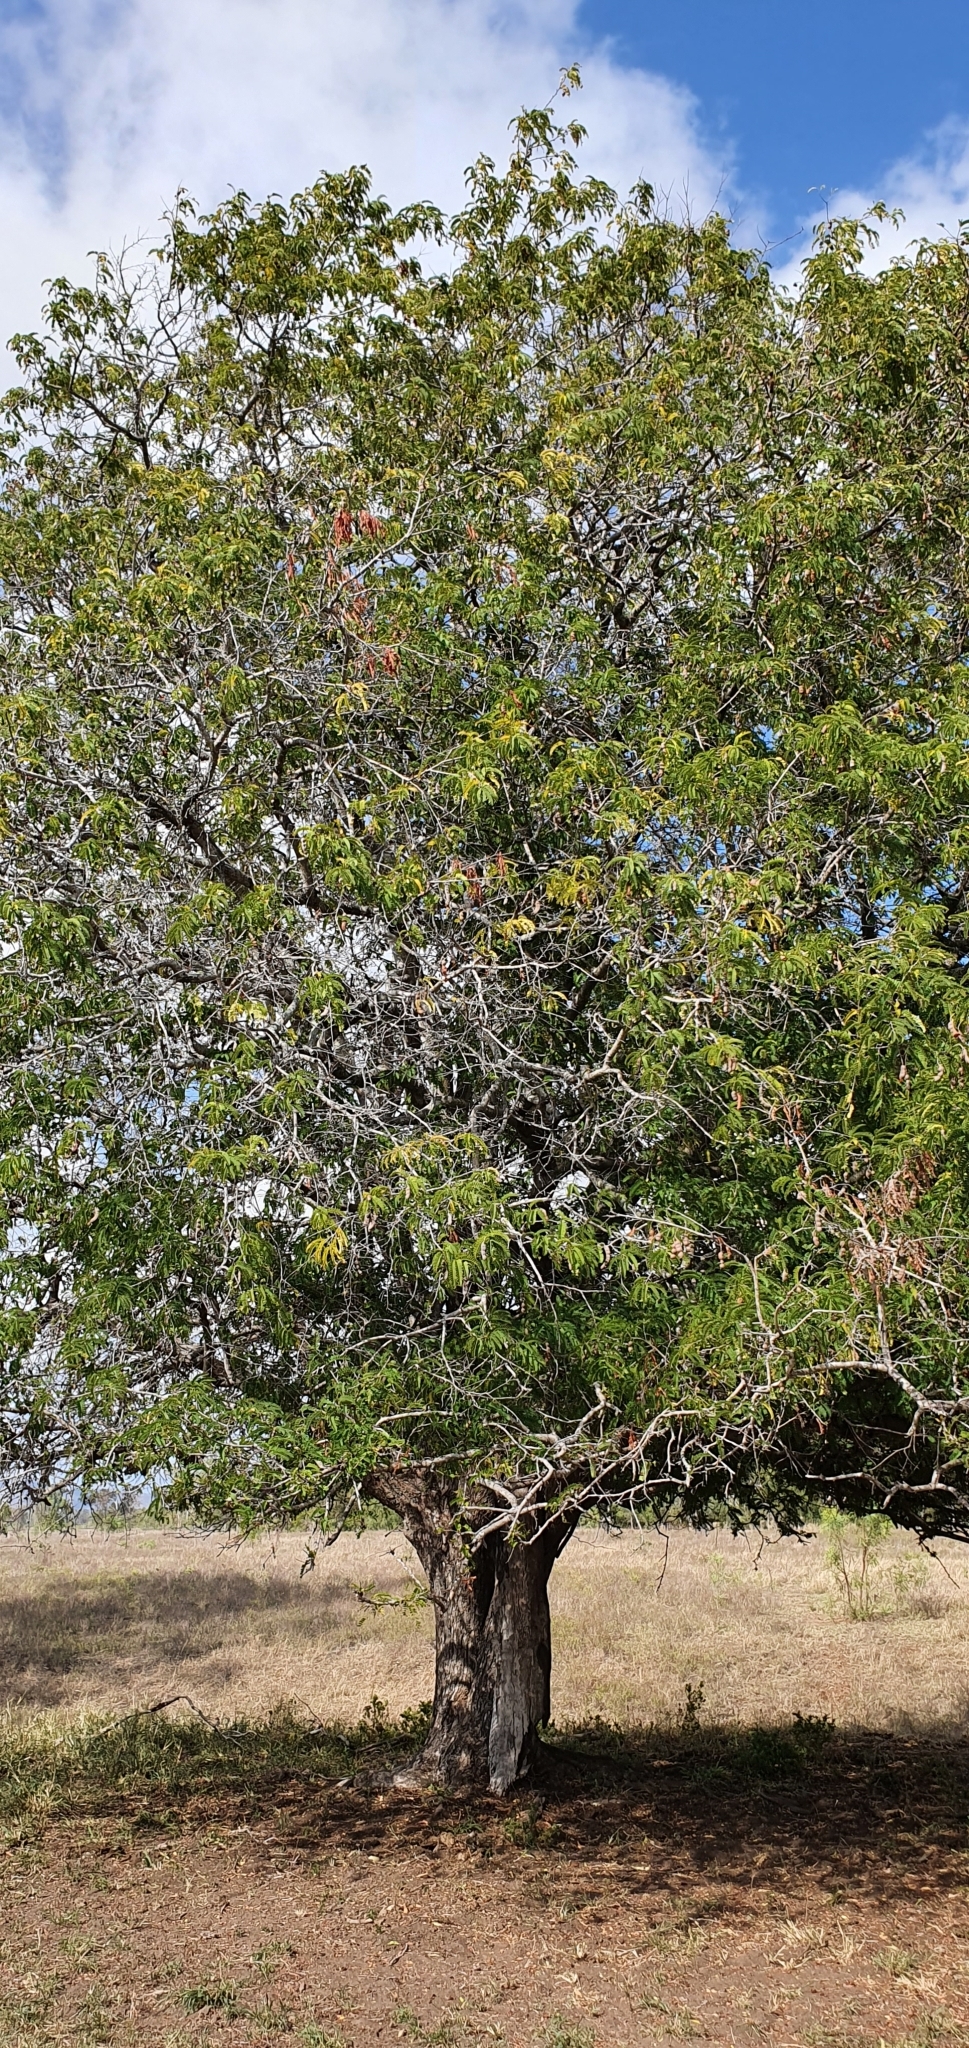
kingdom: Plantae
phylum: Tracheophyta
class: Magnoliopsida
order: Fabales
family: Fabaceae
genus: Tamarindus
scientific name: Tamarindus indica
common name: Tamarind
